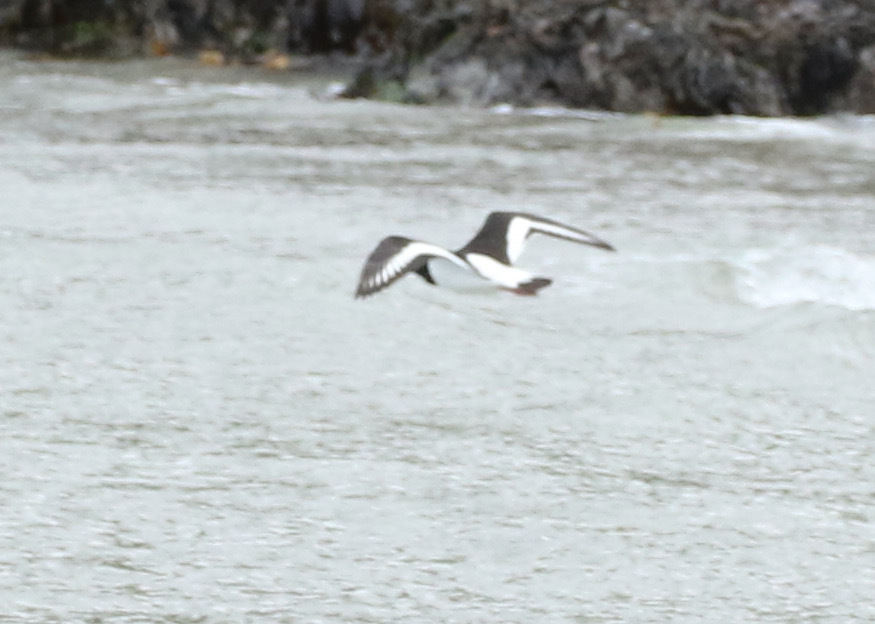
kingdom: Animalia
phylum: Chordata
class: Aves
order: Charadriiformes
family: Haematopodidae
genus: Haematopus
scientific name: Haematopus ostralegus
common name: Eurasian oystercatcher
